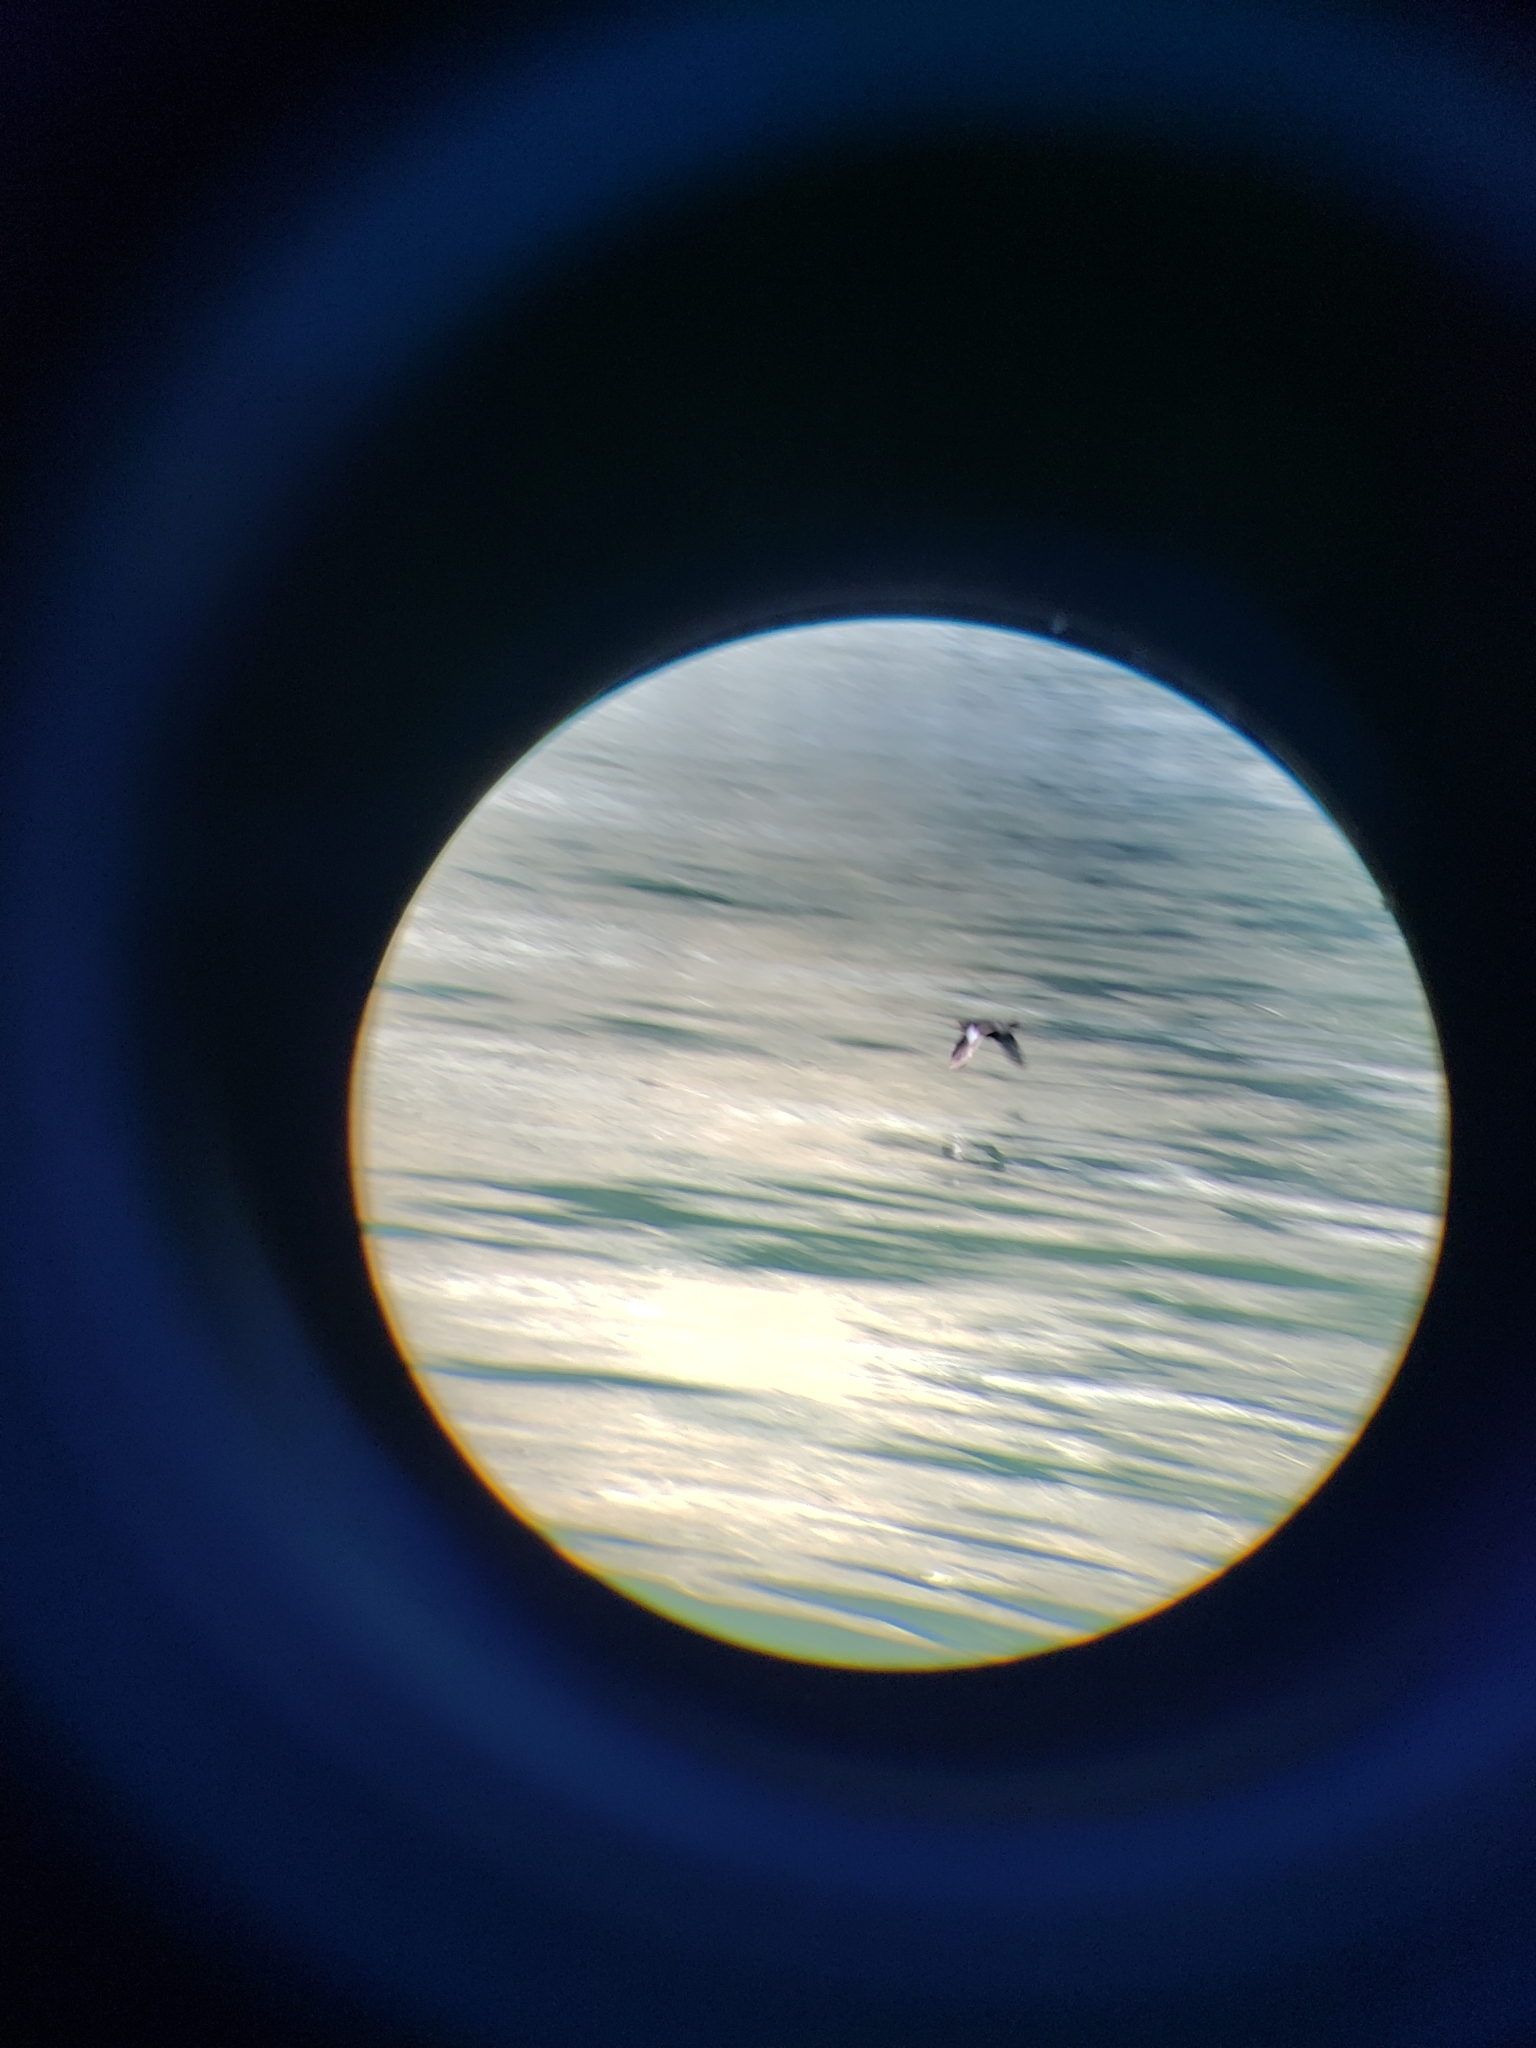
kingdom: Animalia
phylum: Chordata
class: Aves
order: Charadriiformes
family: Alcidae
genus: Cepphus
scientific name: Cepphus columba
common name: Pigeon guillemot
